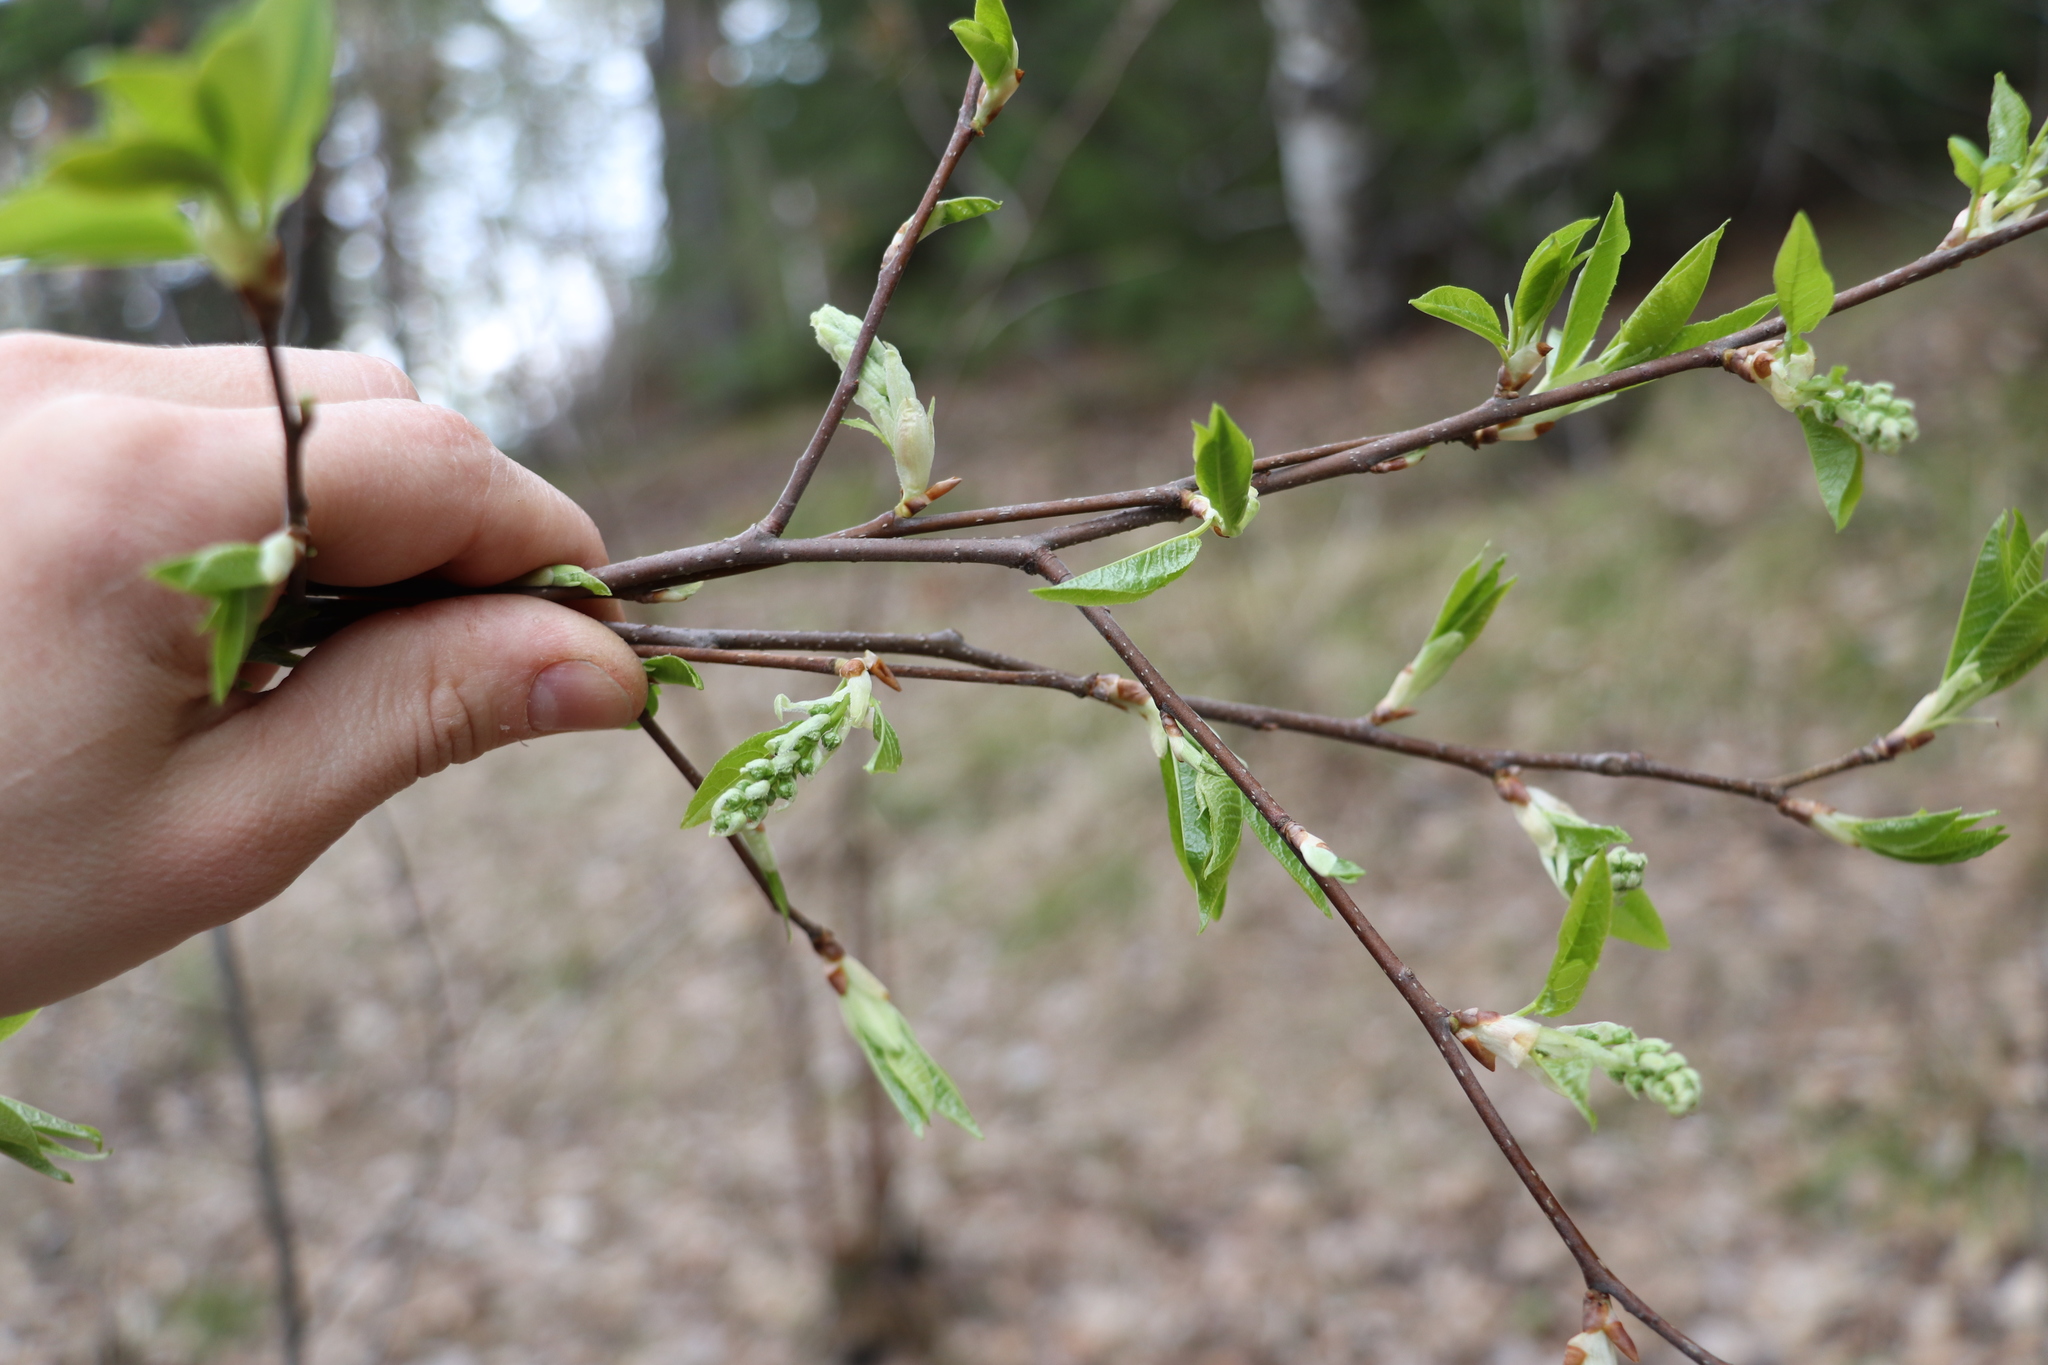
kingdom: Plantae
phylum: Tracheophyta
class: Magnoliopsida
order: Rosales
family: Rosaceae
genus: Prunus
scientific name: Prunus padus
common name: Bird cherry
